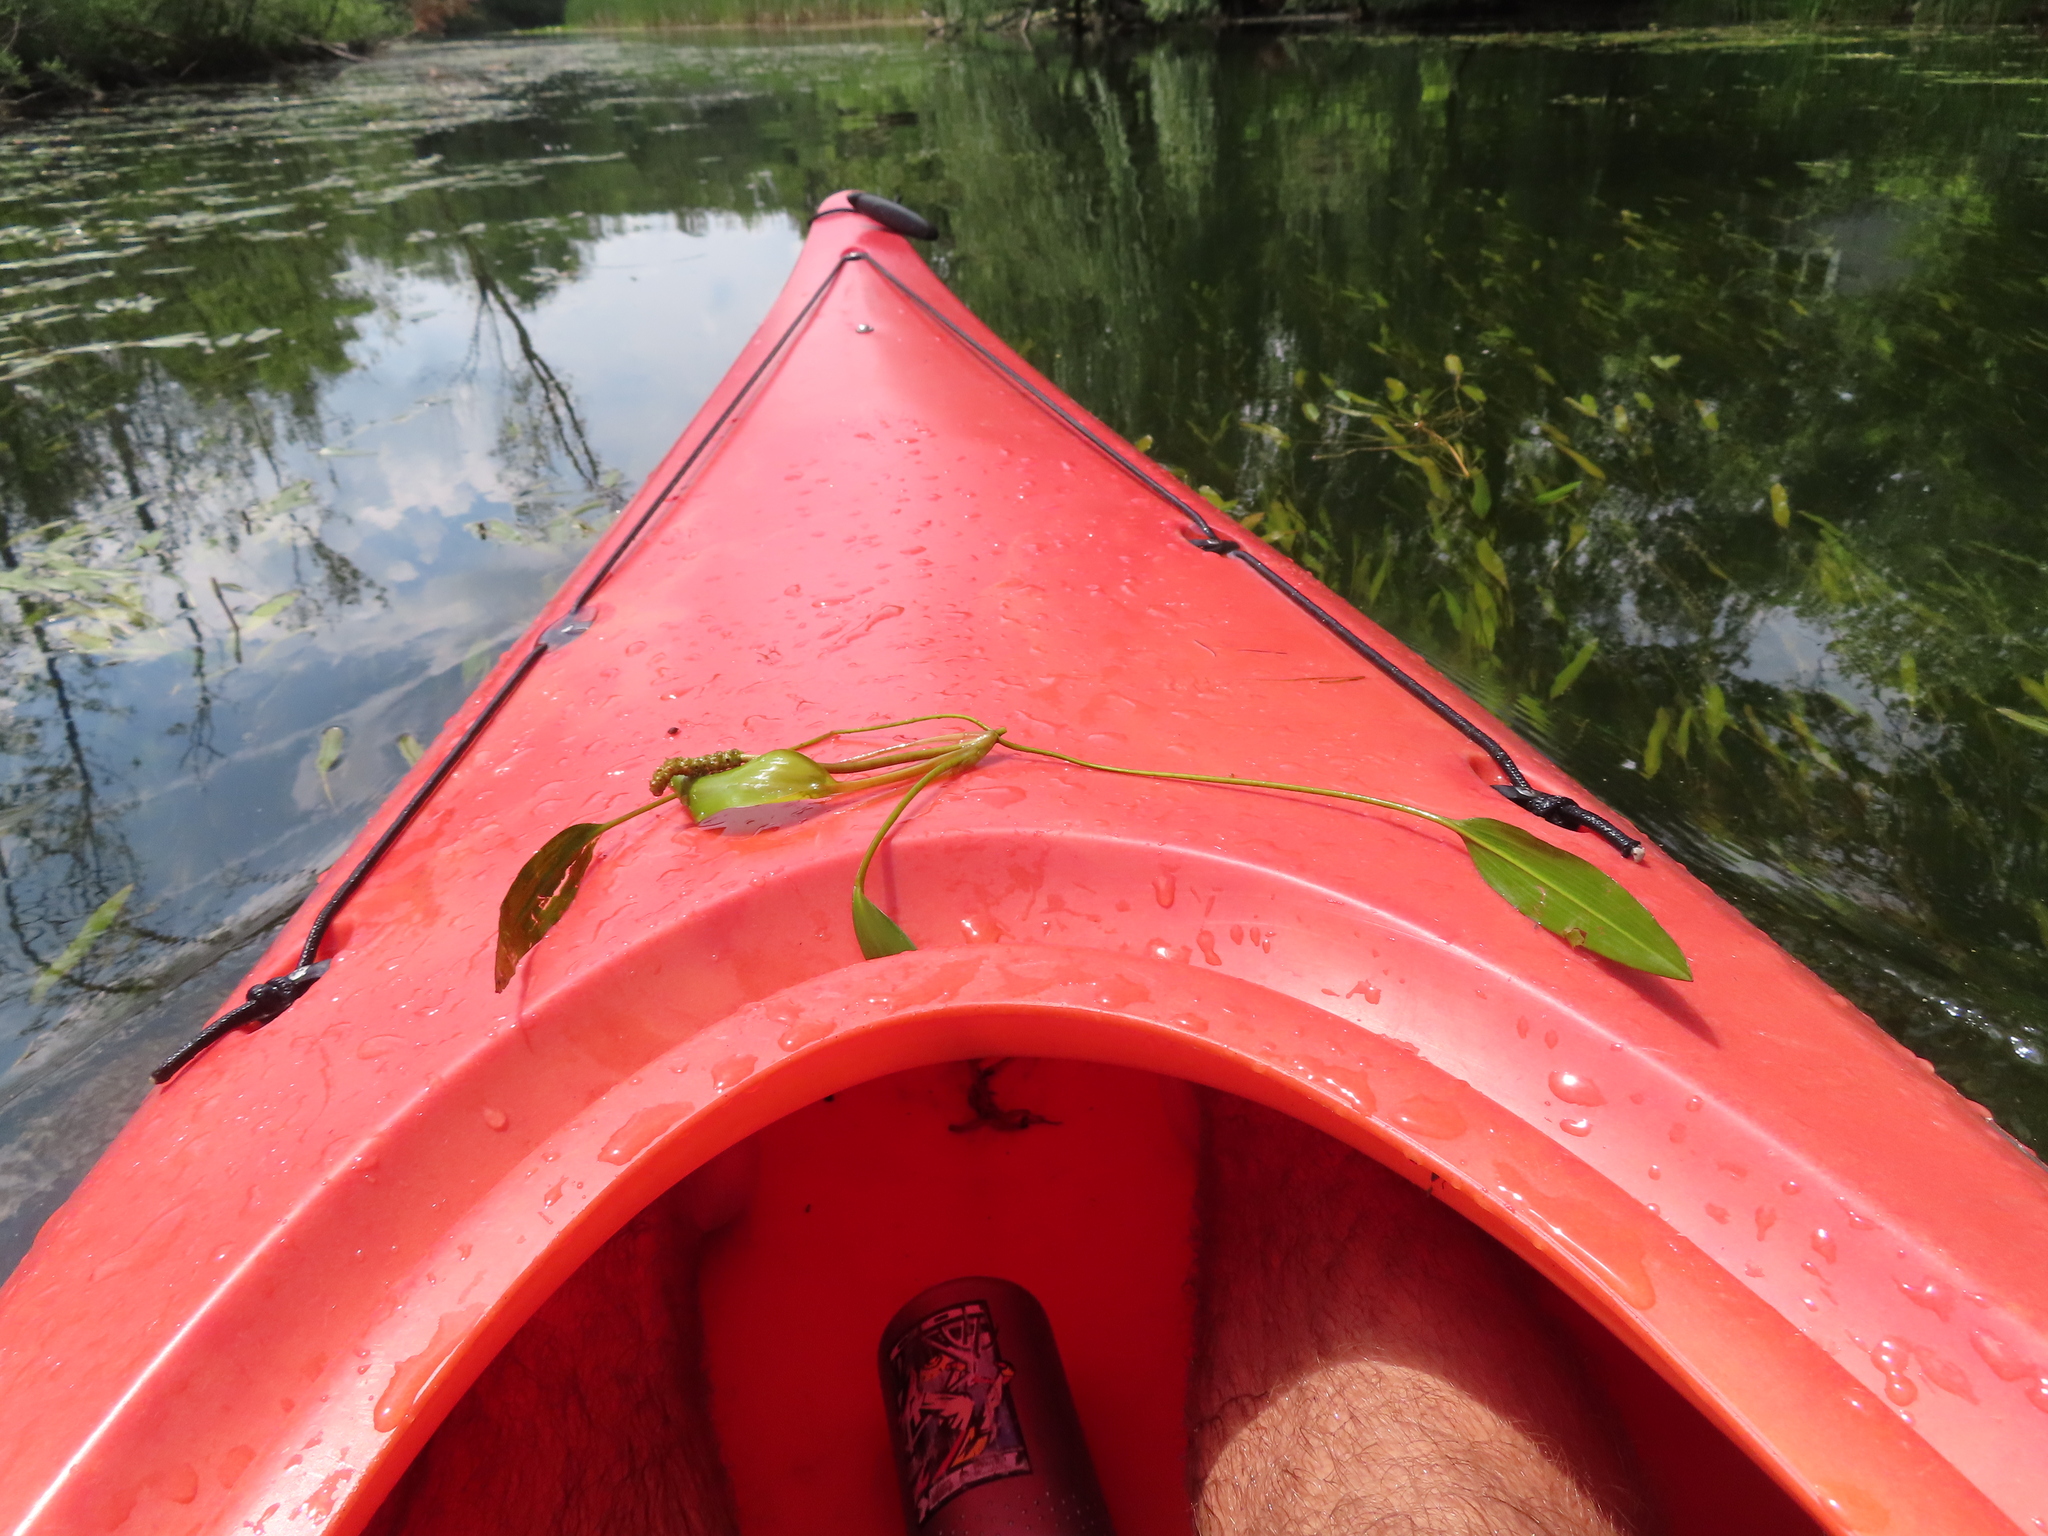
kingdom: Plantae
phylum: Tracheophyta
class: Liliopsida
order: Alismatales
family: Potamogetonaceae
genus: Potamogeton
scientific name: Potamogeton nodosus
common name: Loddon pondweed
